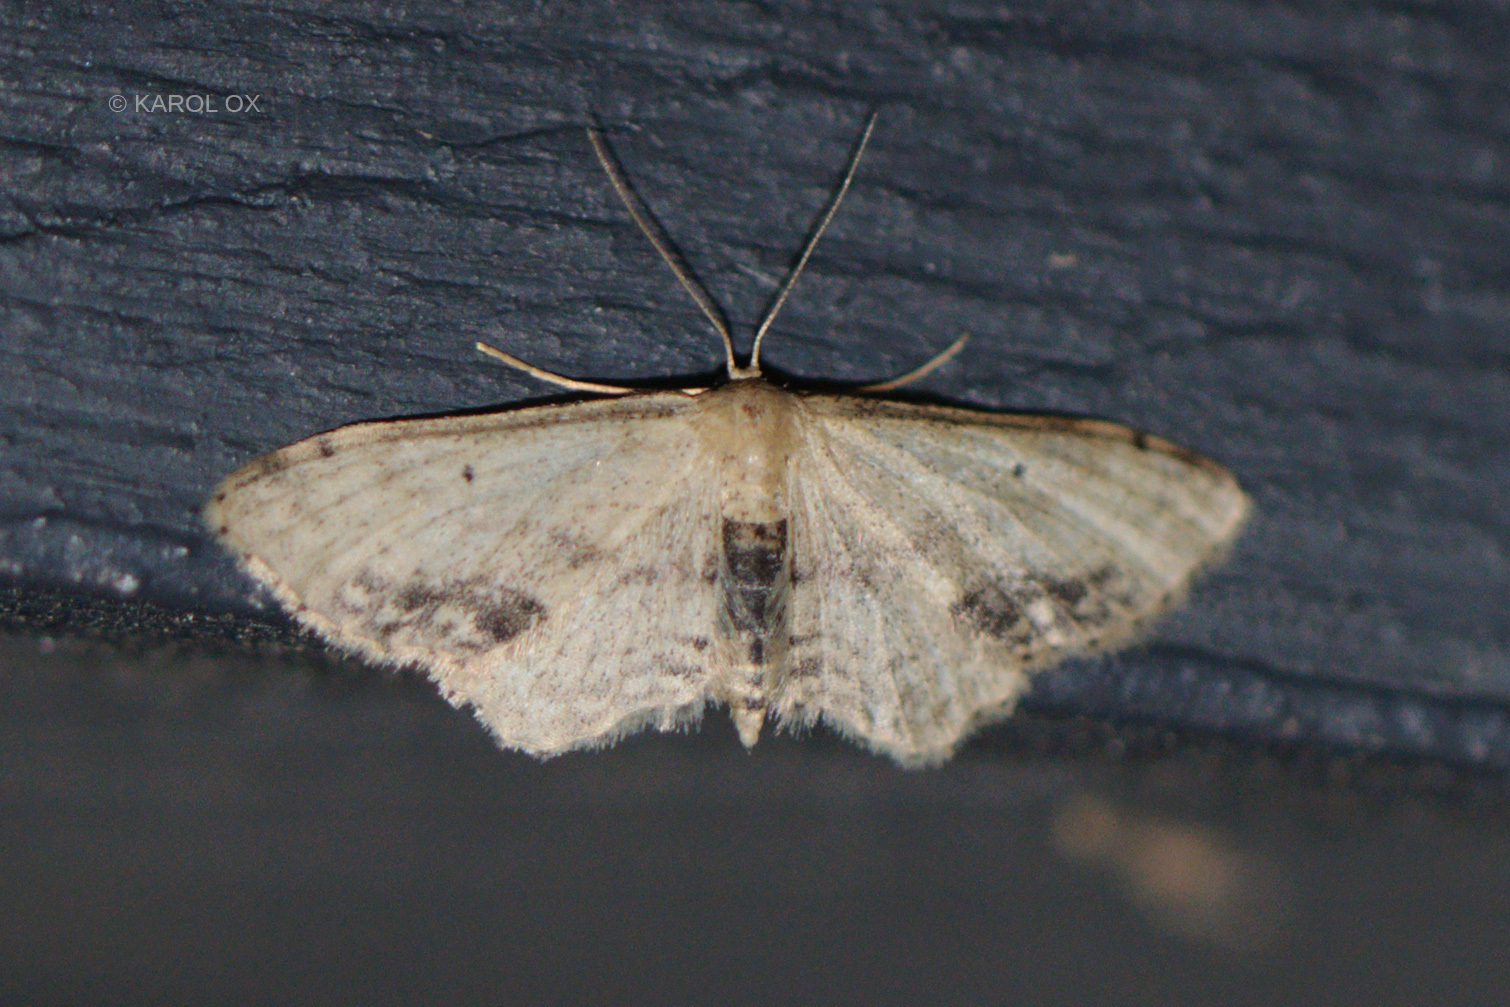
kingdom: Animalia
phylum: Arthropoda
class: Insecta
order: Lepidoptera
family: Geometridae
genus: Idaea
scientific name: Idaea dimidiata
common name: Single-dotted wave
